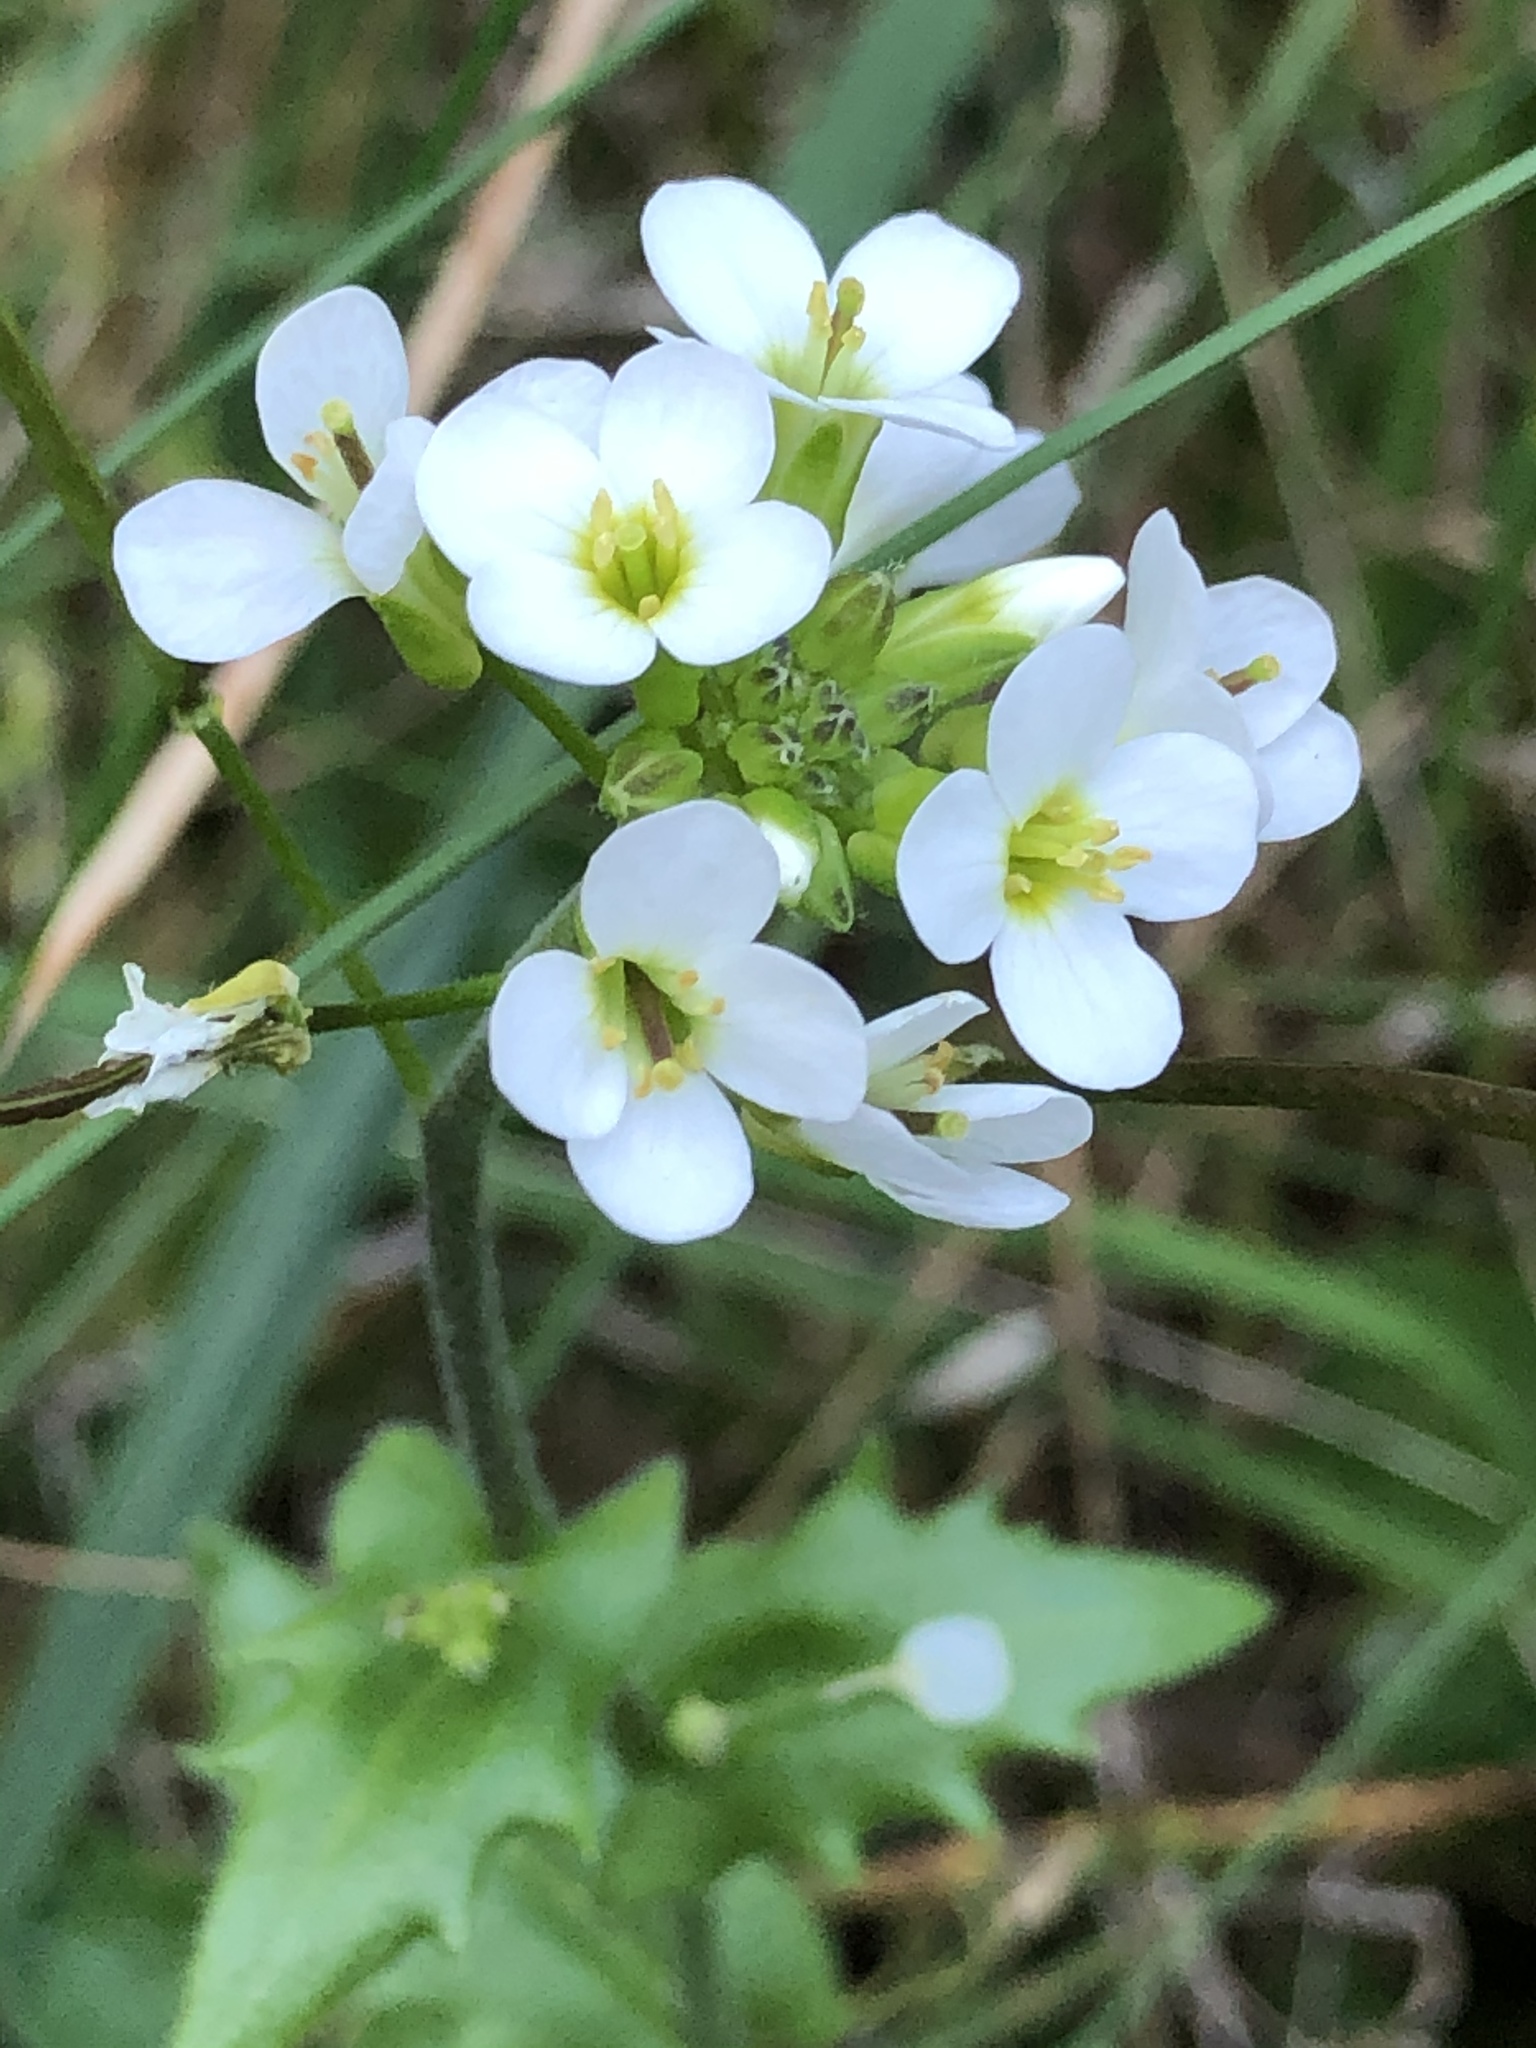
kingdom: Plantae
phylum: Tracheophyta
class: Magnoliopsida
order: Brassicales
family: Brassicaceae
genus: Arabis
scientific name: Arabis alpina
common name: Alpine rock-cress
